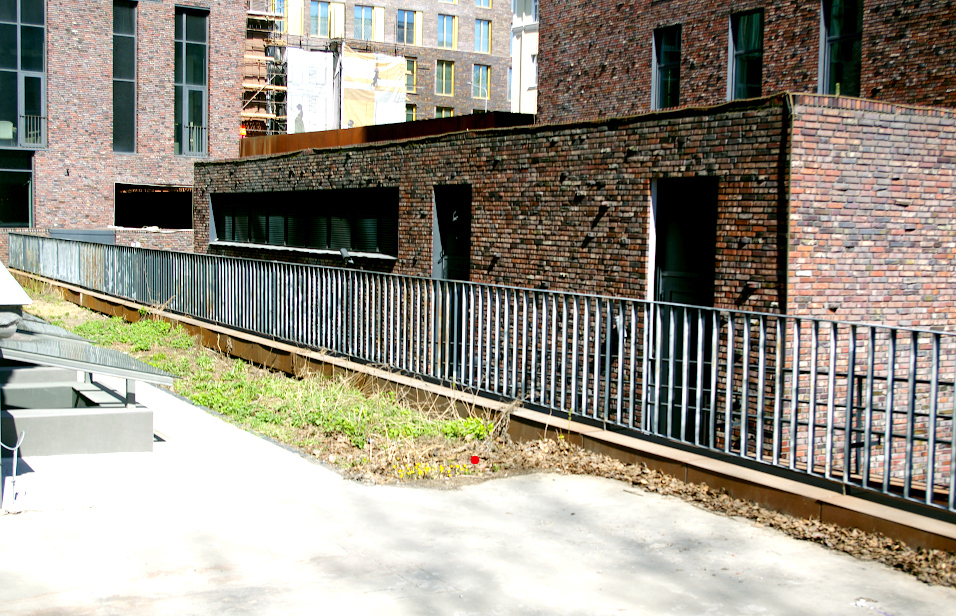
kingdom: Plantae
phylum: Tracheophyta
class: Magnoliopsida
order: Asterales
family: Asteraceae
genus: Tussilago
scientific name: Tussilago farfara
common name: Coltsfoot
